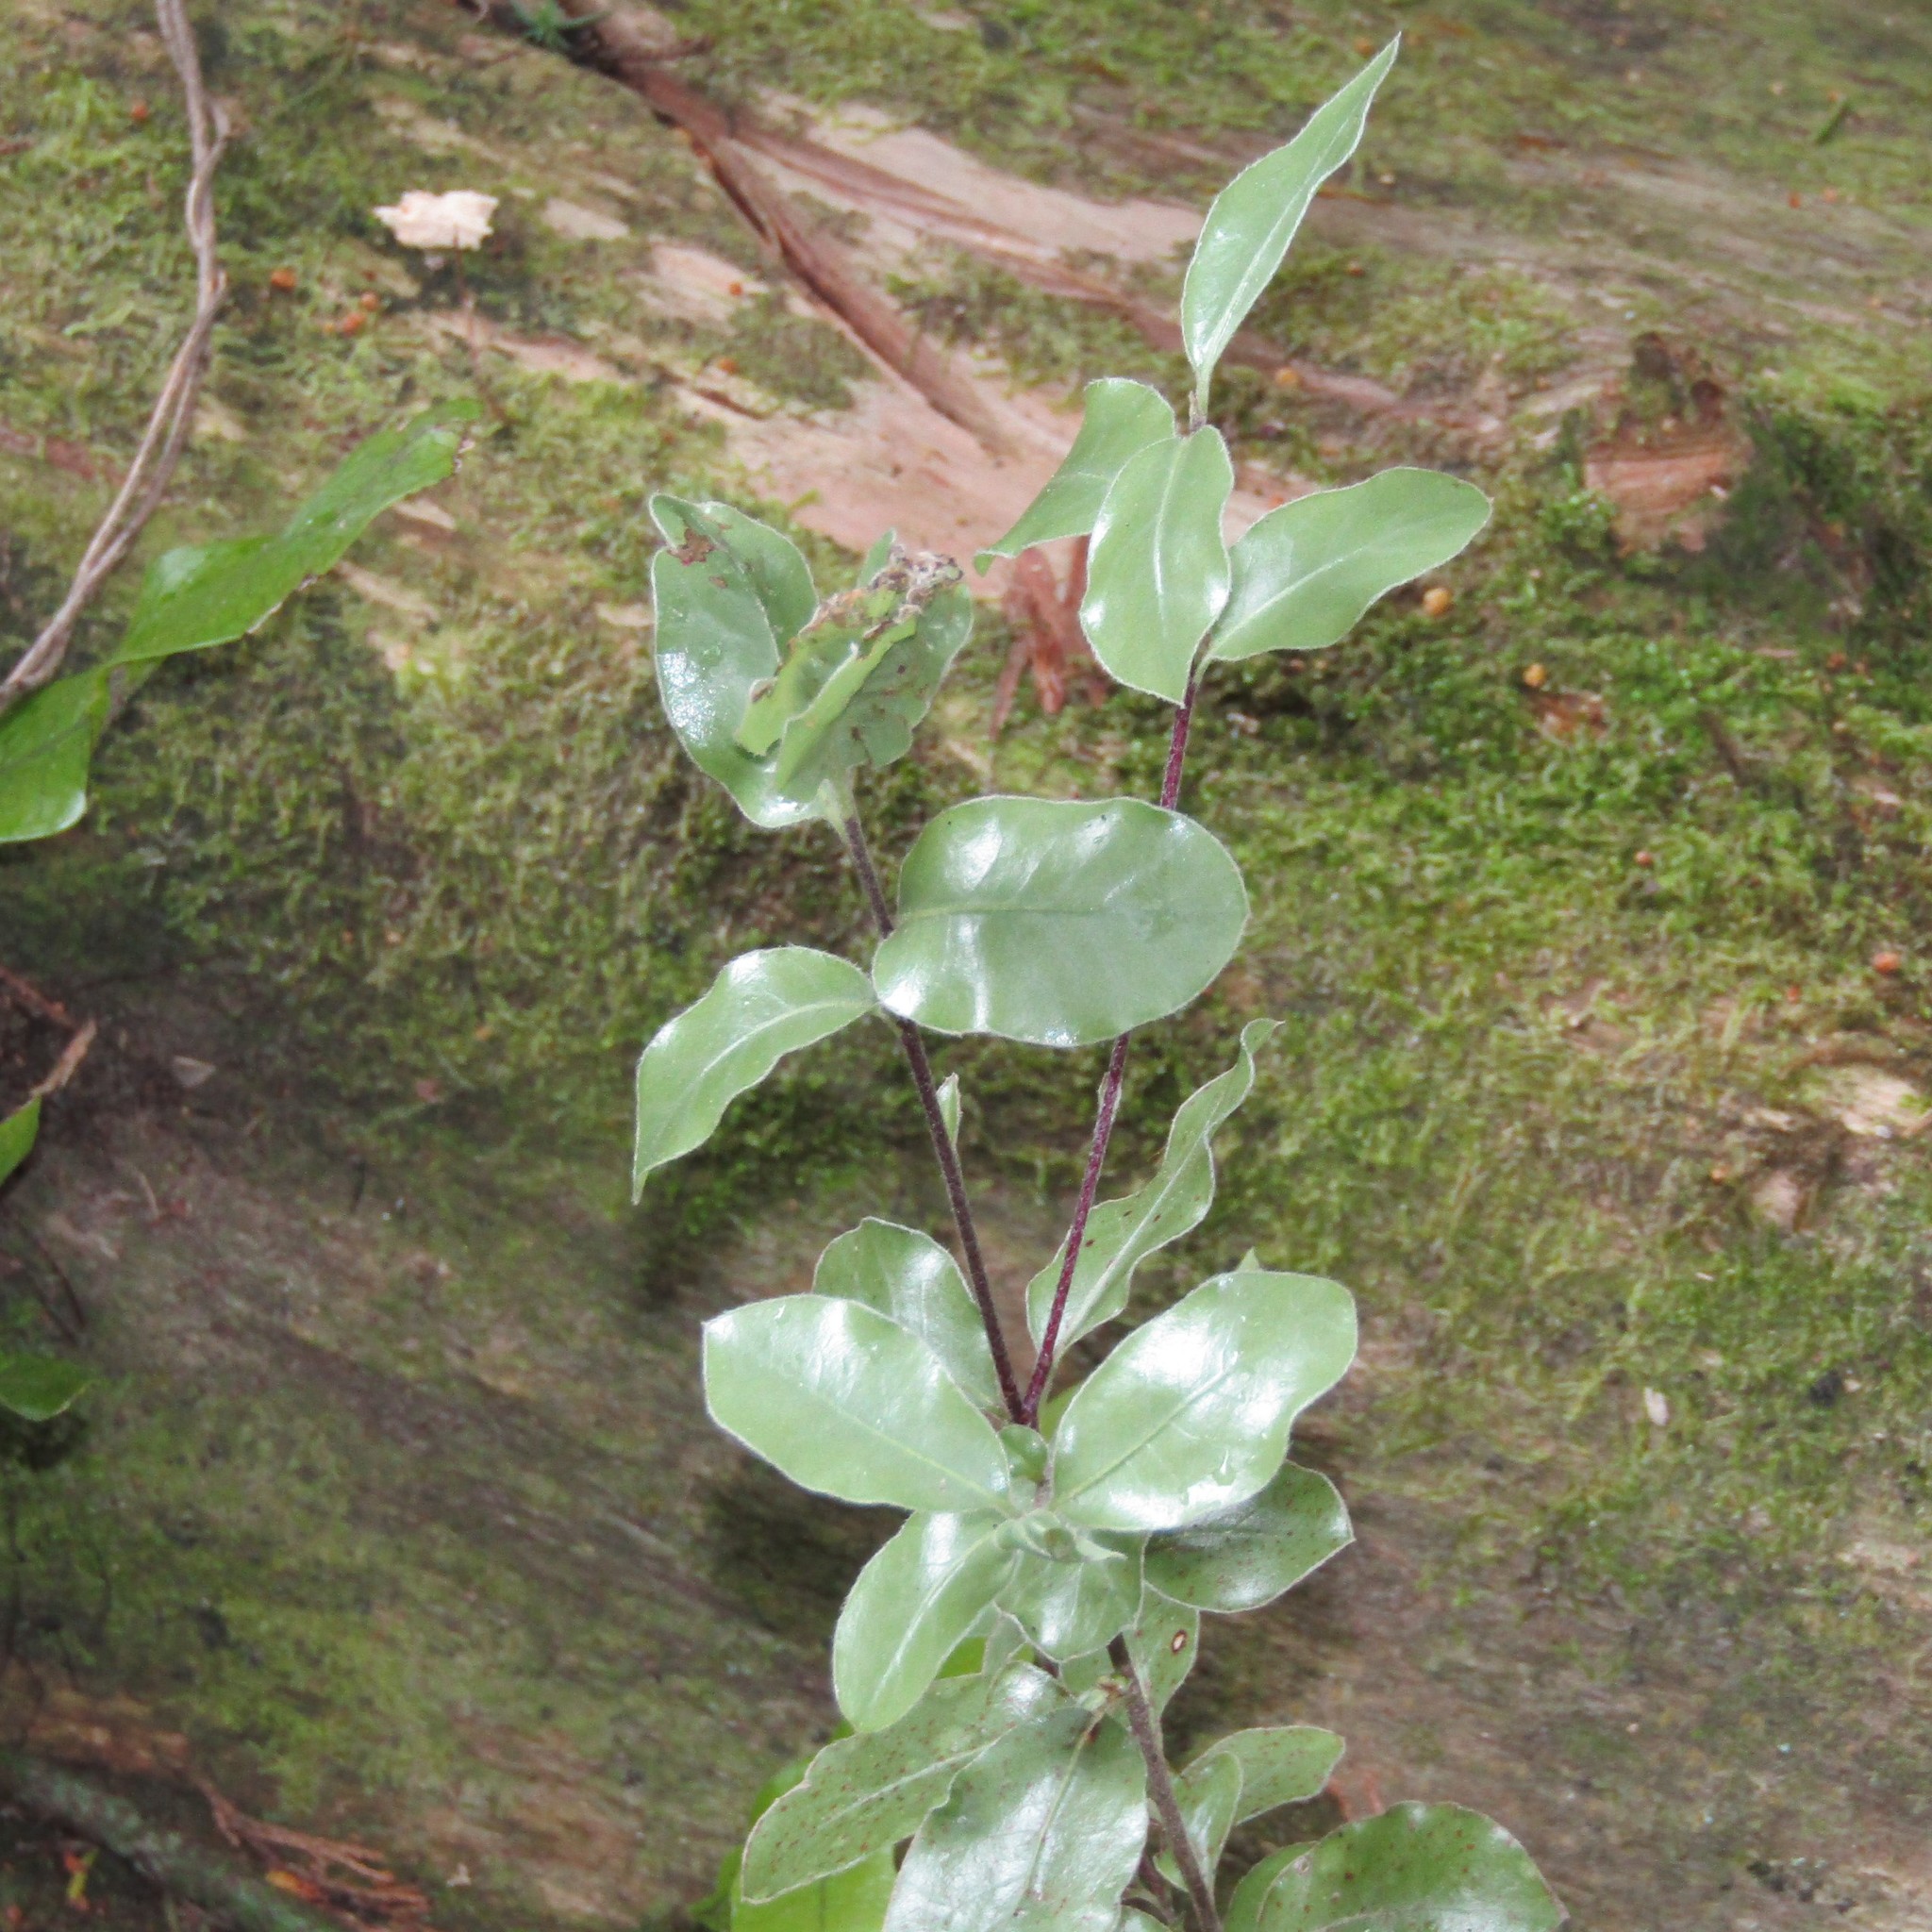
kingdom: Plantae
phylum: Tracheophyta
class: Magnoliopsida
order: Apiales
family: Pittosporaceae
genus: Pittosporum
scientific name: Pittosporum tenuifolium
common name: Kohuhu
